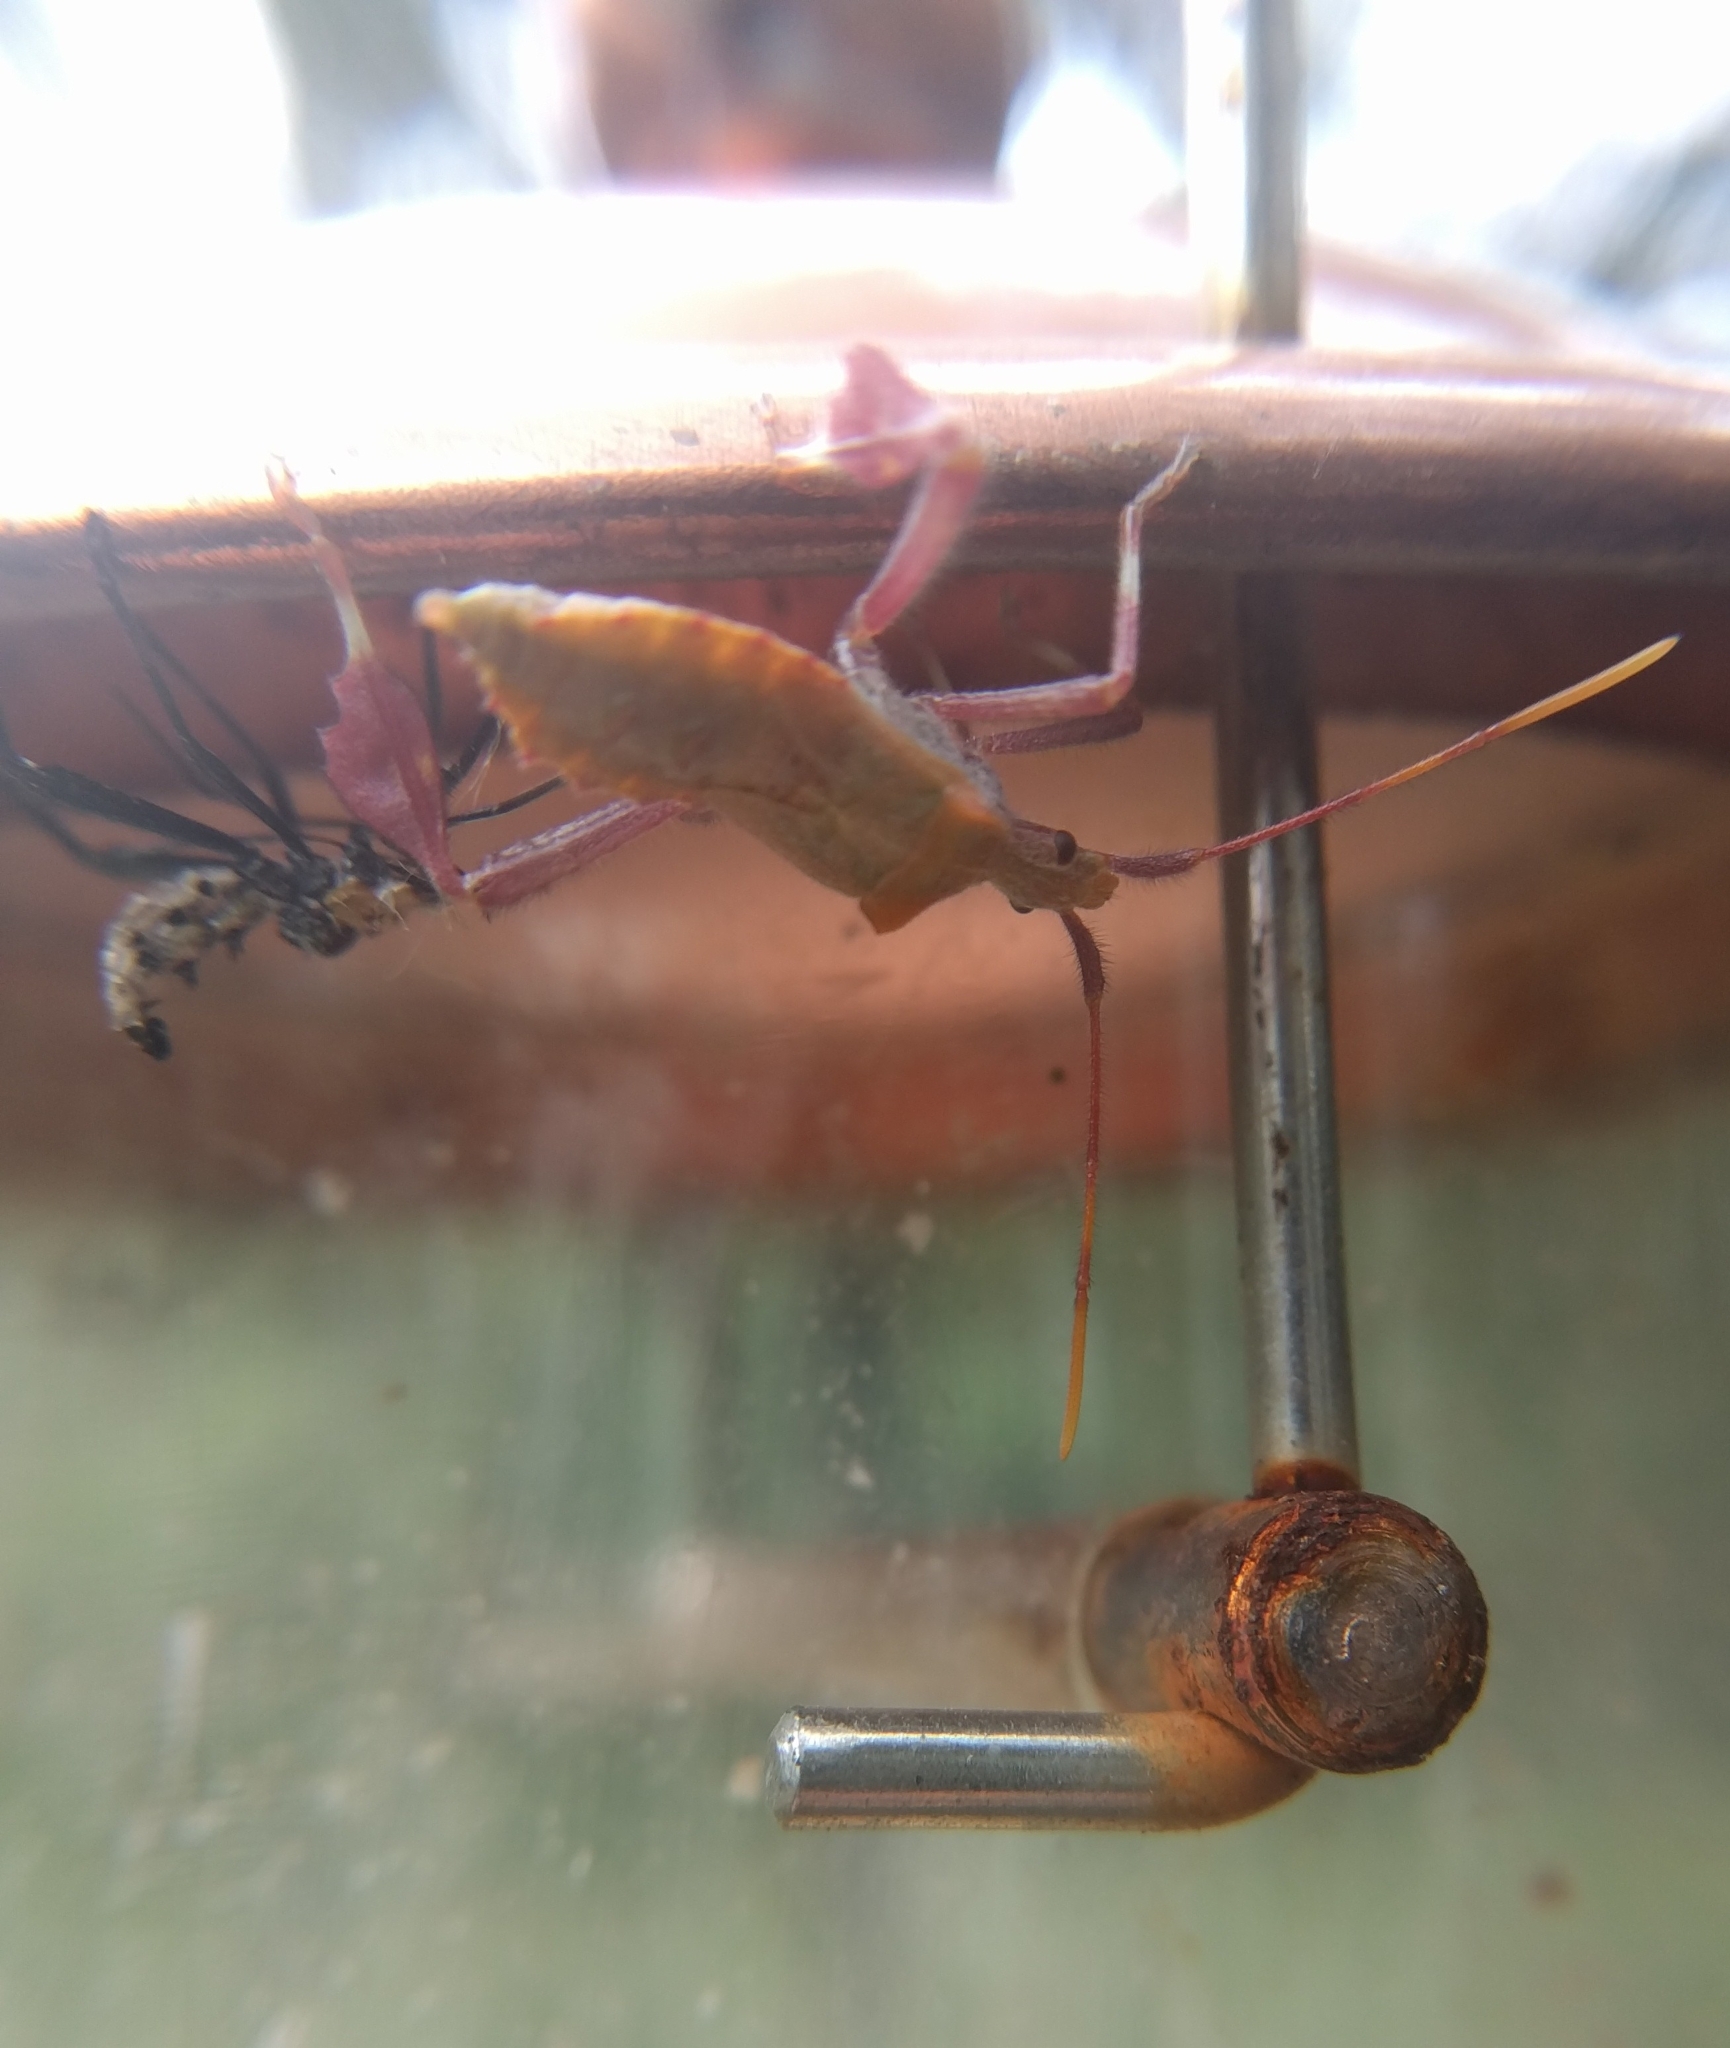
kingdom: Animalia
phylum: Arthropoda
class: Insecta
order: Hemiptera
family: Coreidae
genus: Leptoglossus
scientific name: Leptoglossus zonatus
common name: Large-legged bug
